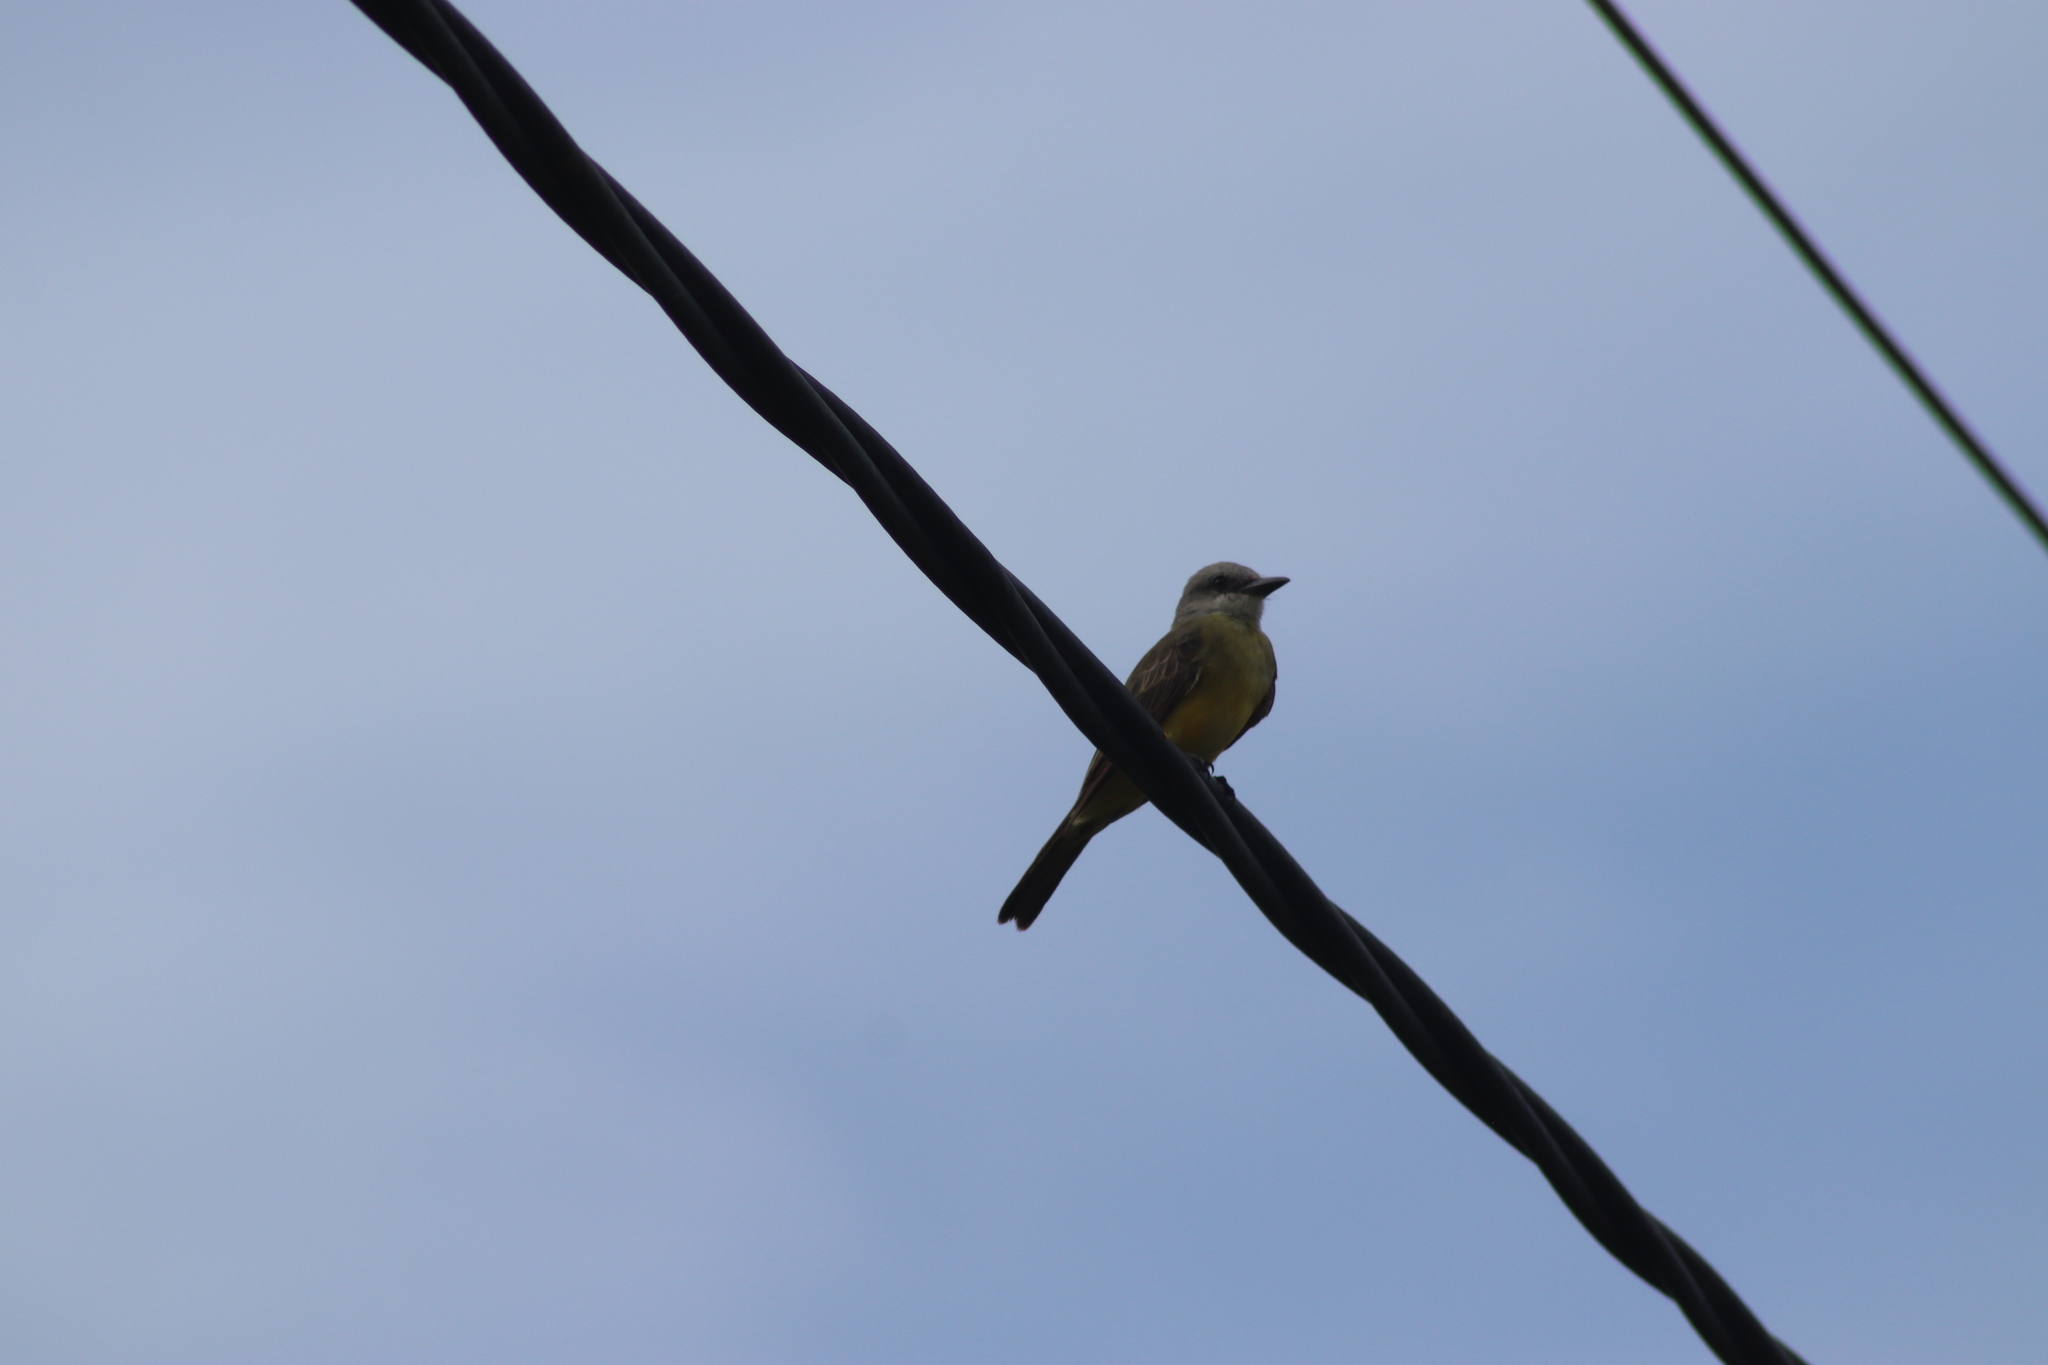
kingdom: Animalia
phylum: Chordata
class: Aves
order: Passeriformes
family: Tyrannidae
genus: Tyrannus
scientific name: Tyrannus melancholicus
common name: Tropical kingbird
